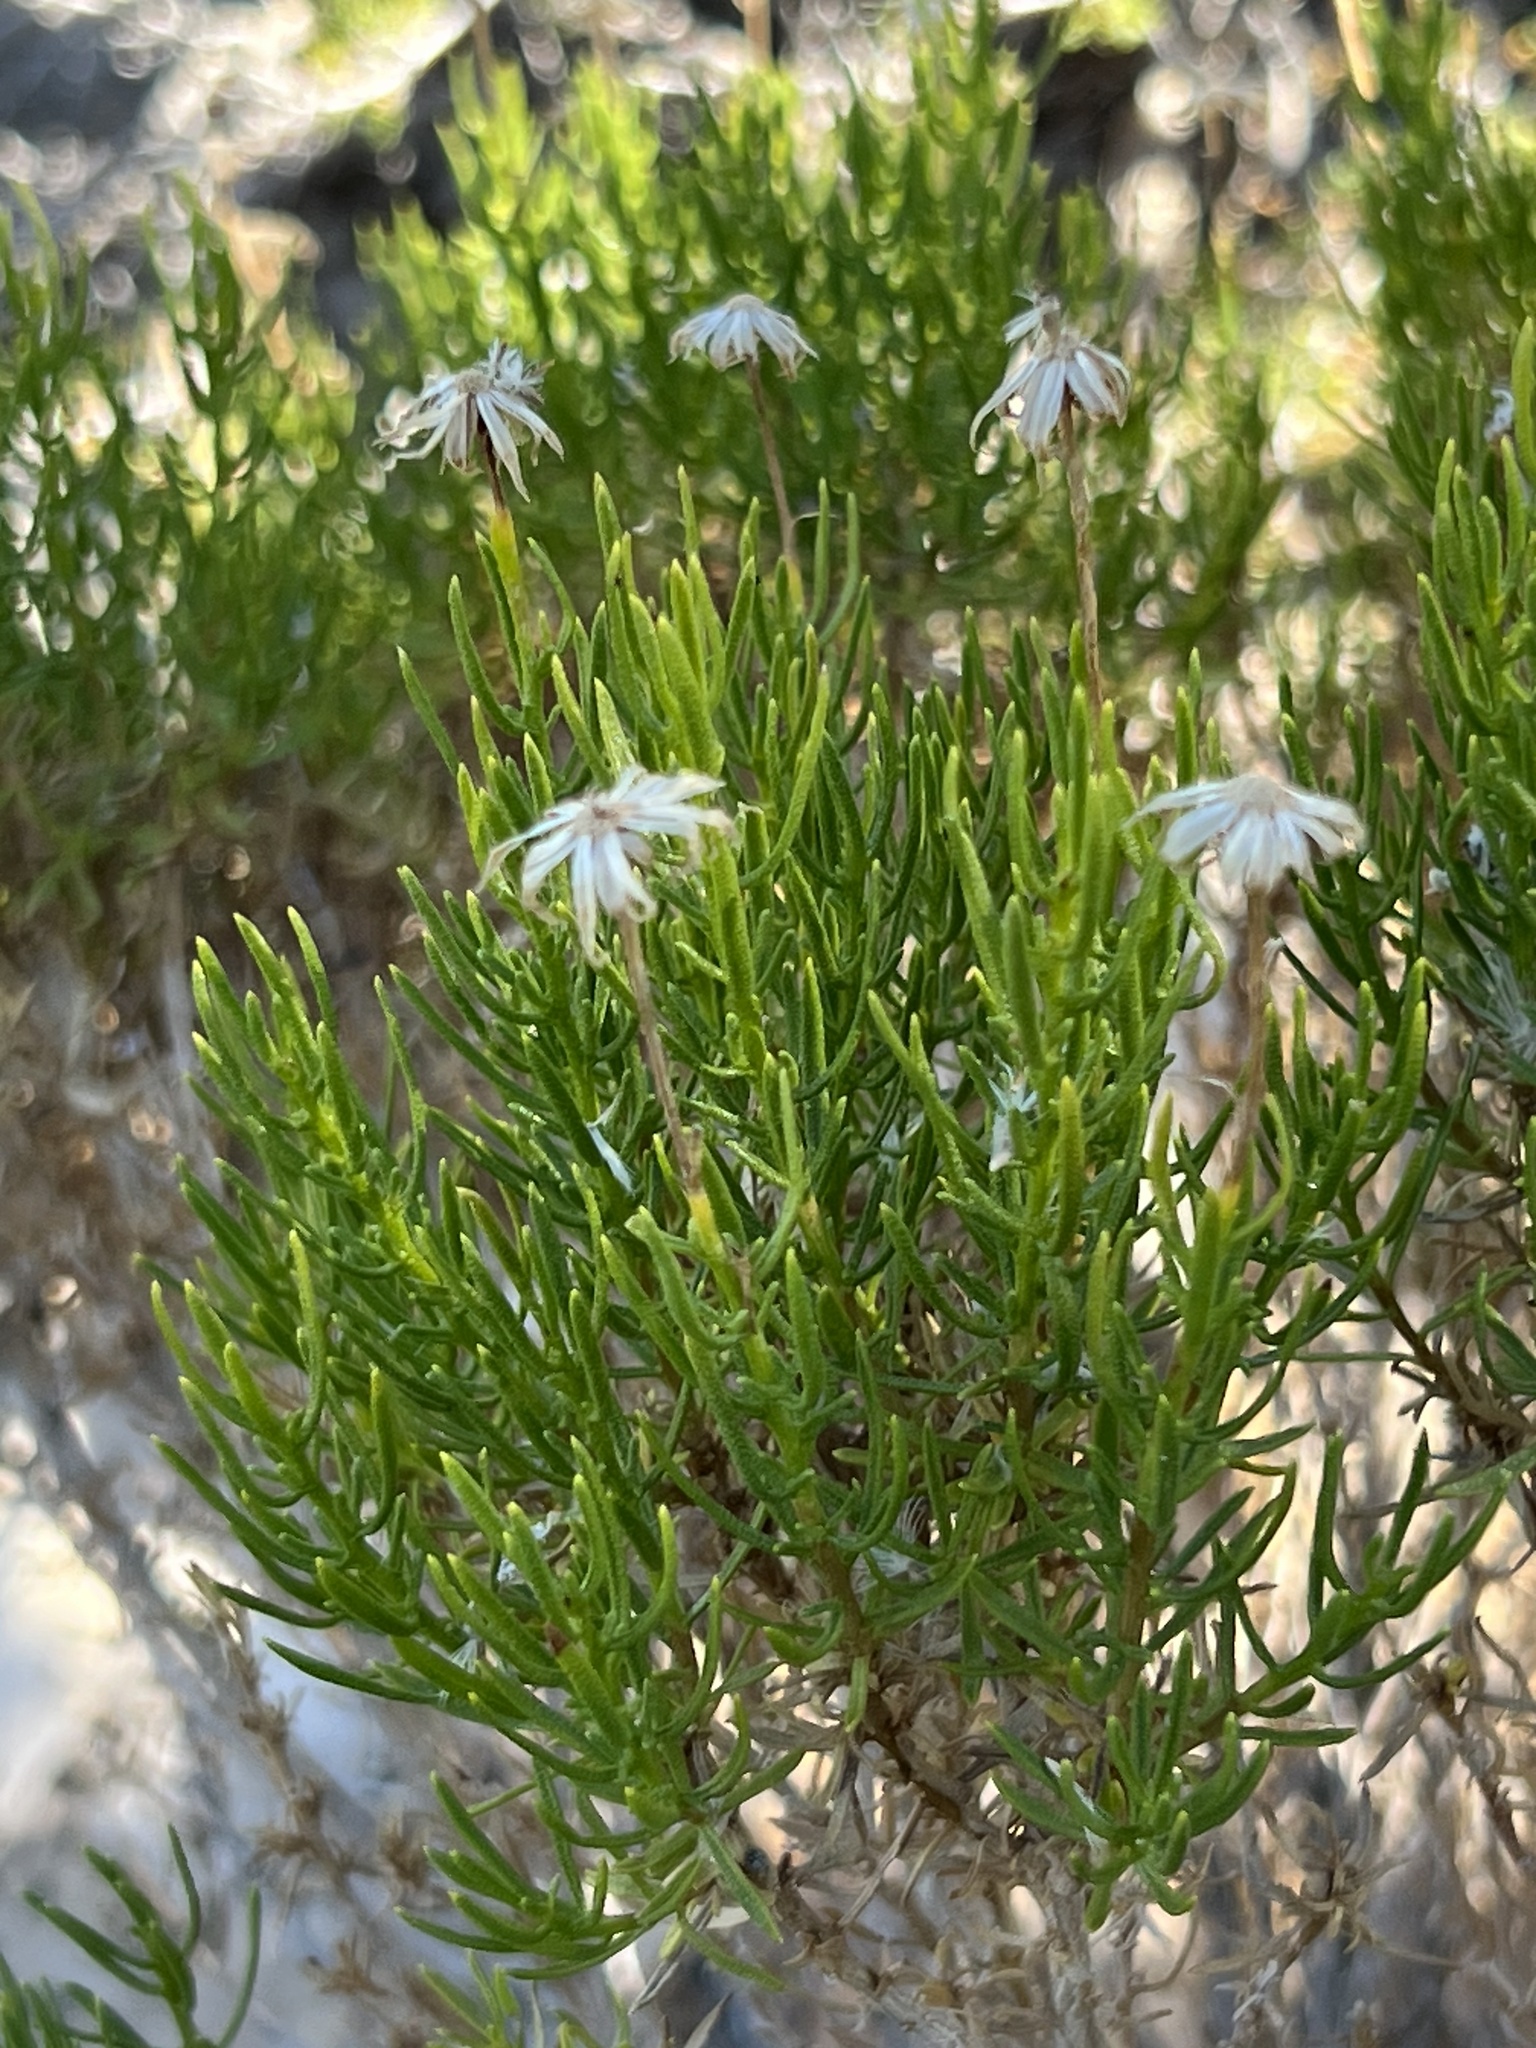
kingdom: Plantae
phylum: Tracheophyta
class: Magnoliopsida
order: Asterales
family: Asteraceae
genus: Ericameria
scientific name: Ericameria linearifolia
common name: Interior goldenbush
